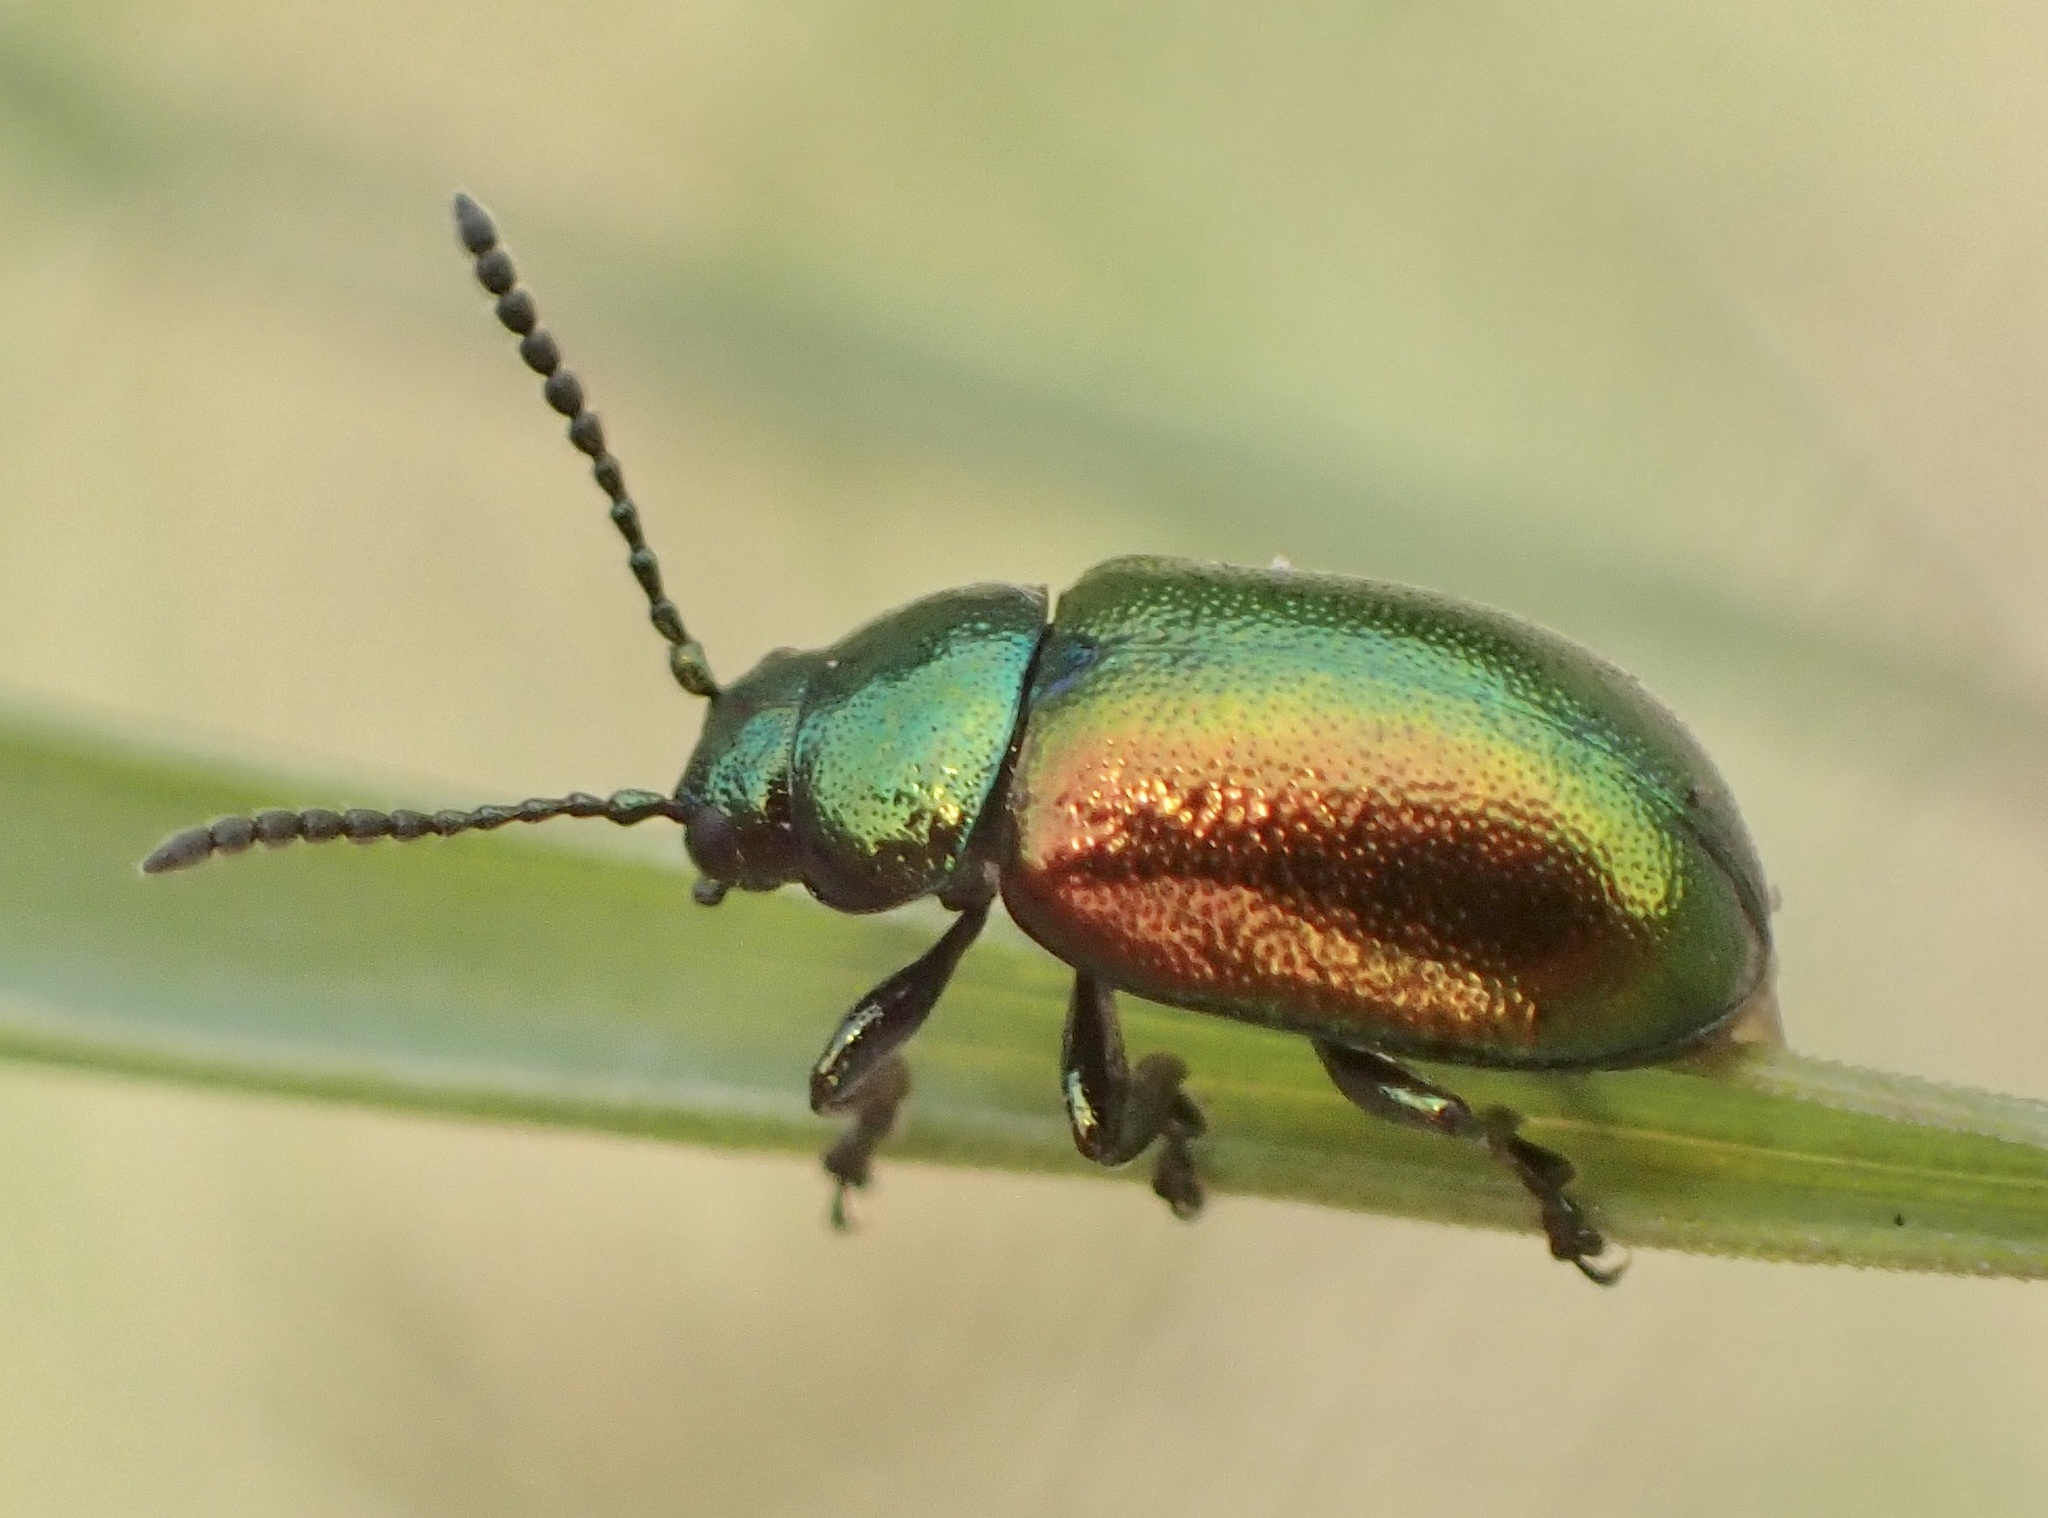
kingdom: Animalia
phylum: Arthropoda
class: Insecta
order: Coleoptera
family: Chrysomelidae
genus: Gastrophysa
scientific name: Gastrophysa viridula
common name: Green dock beetle
